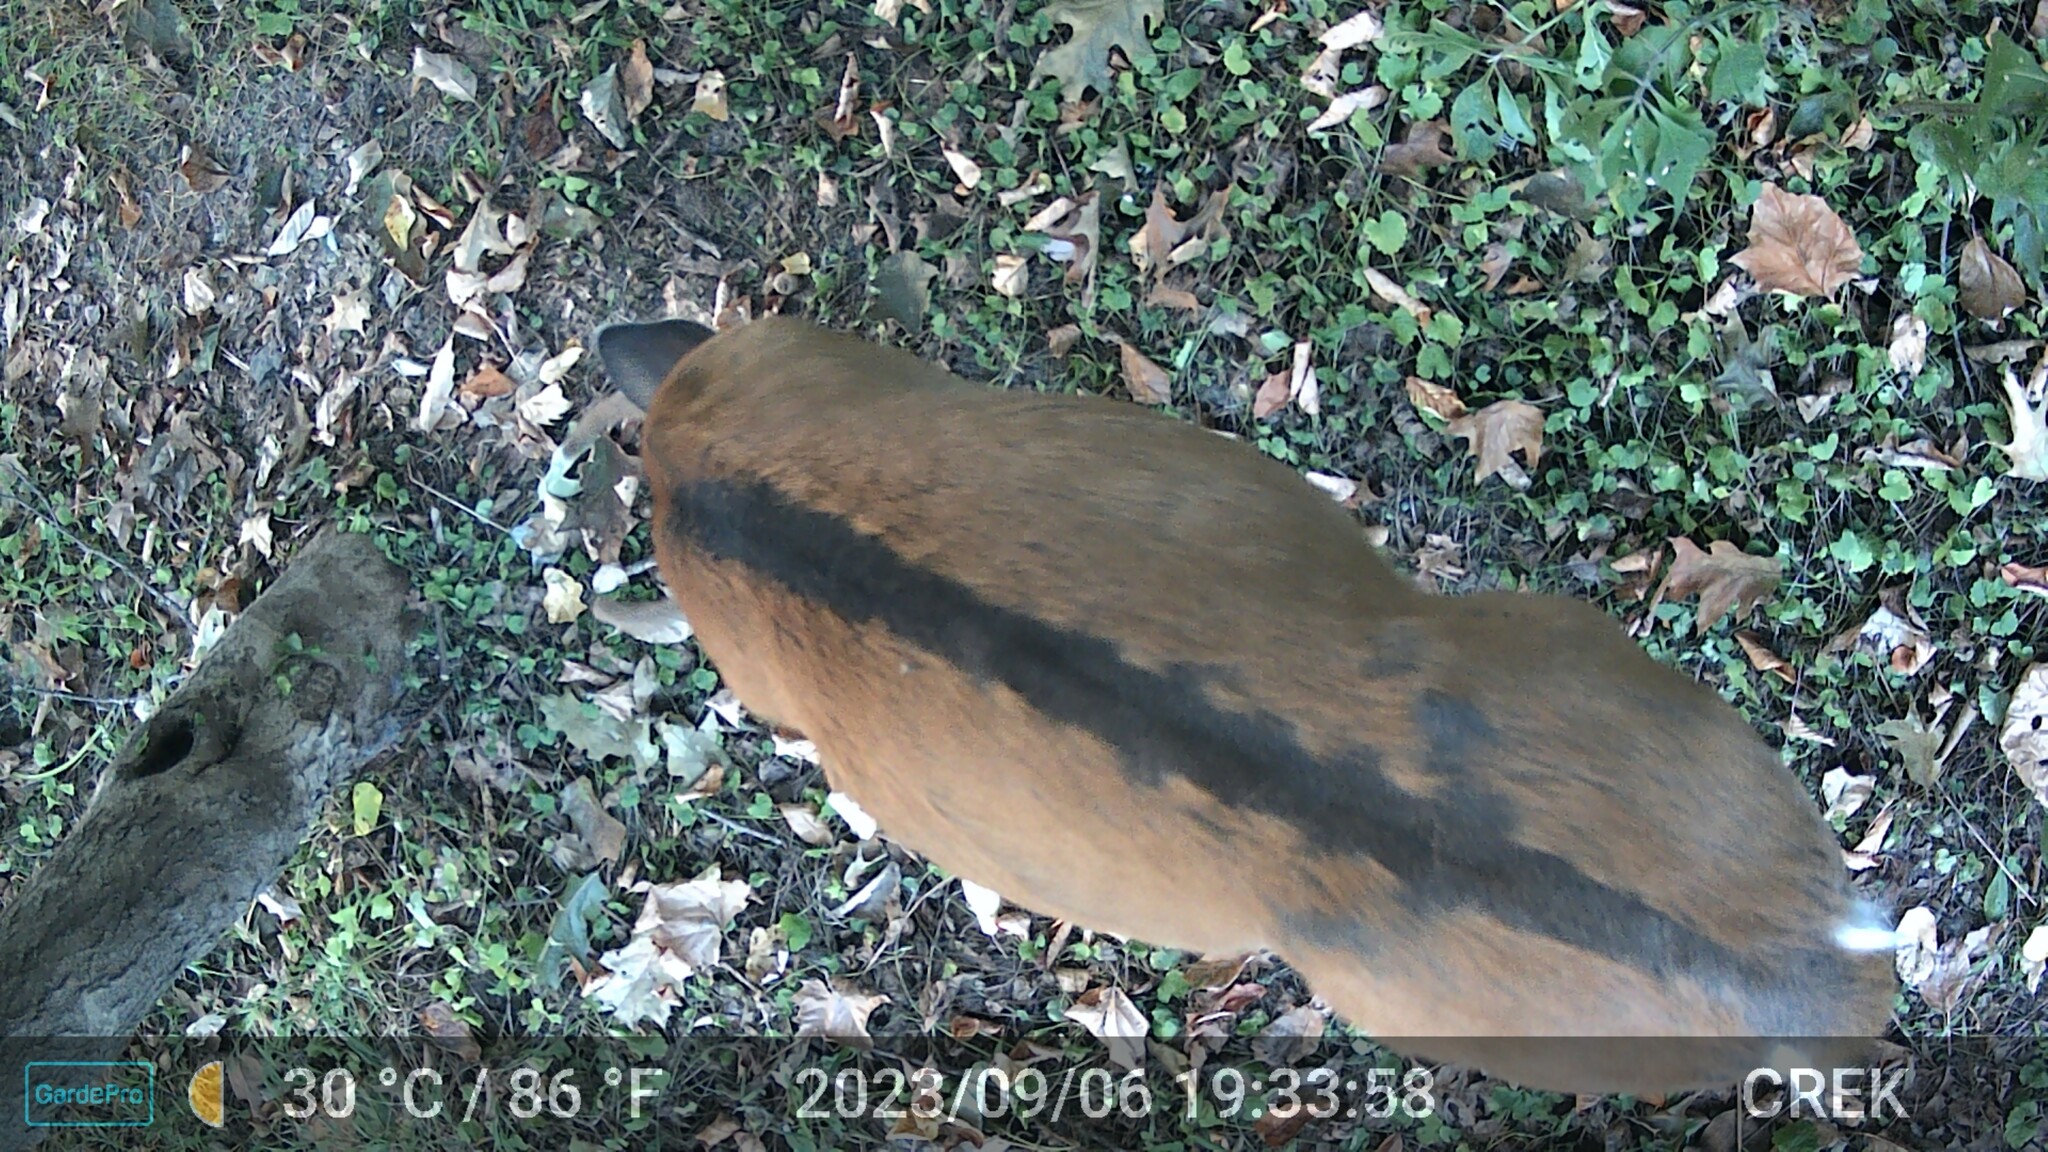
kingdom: Animalia
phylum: Chordata
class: Mammalia
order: Artiodactyla
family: Cervidae
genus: Odocoileus
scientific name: Odocoileus virginianus
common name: White-tailed deer
